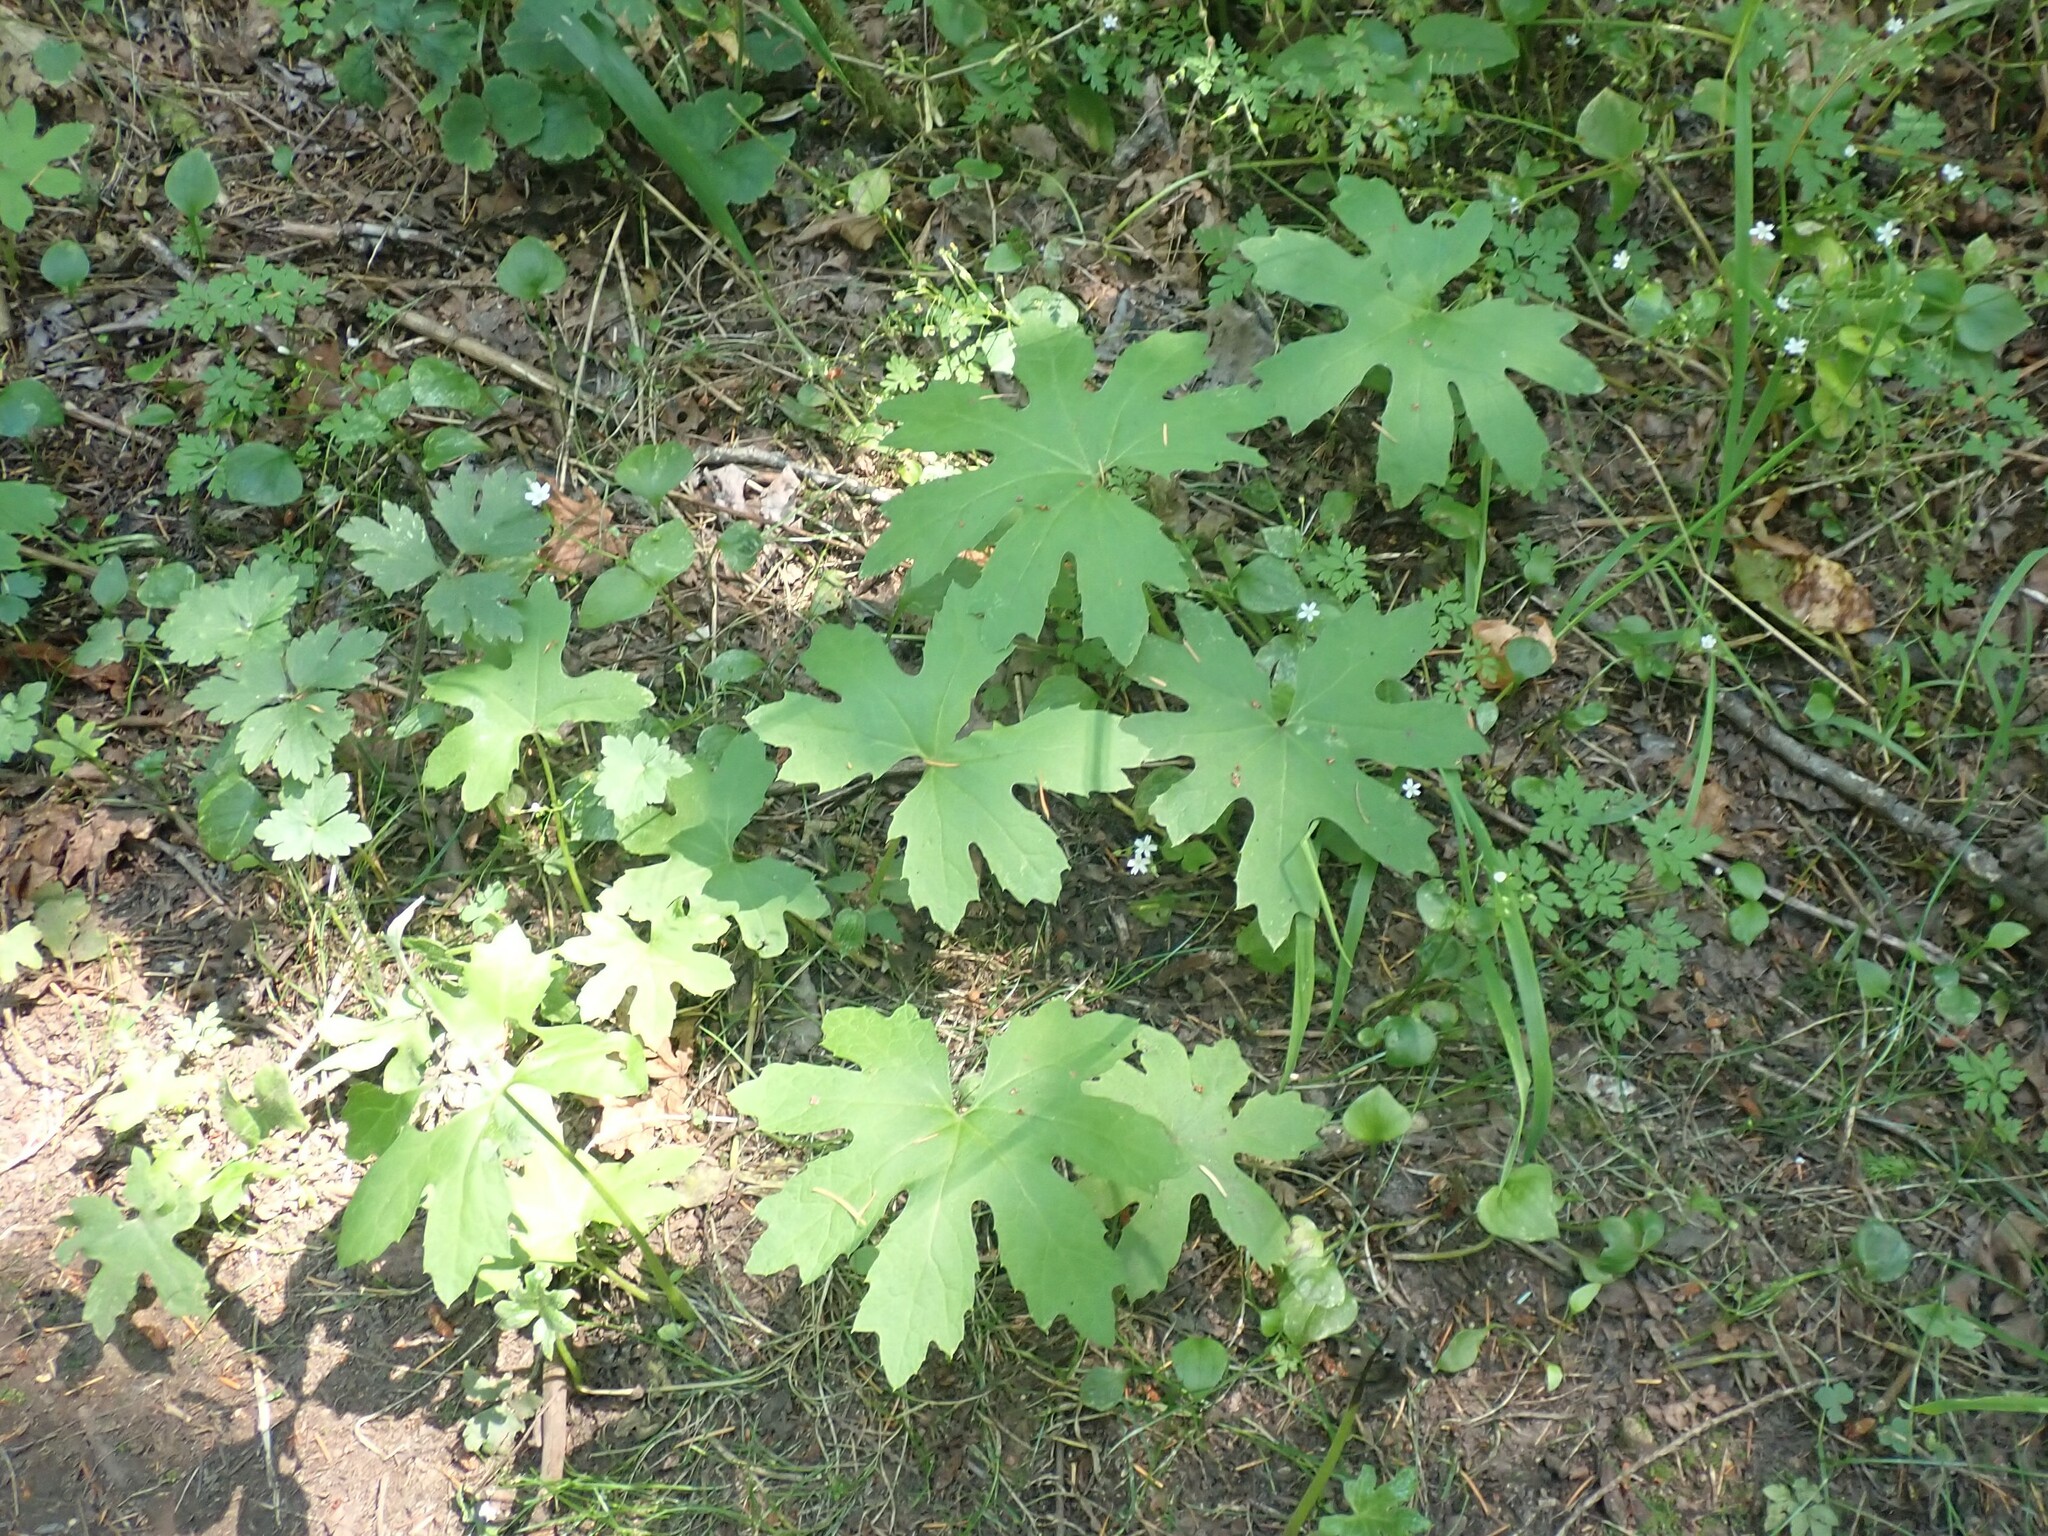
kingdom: Plantae
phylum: Tracheophyta
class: Magnoliopsida
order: Asterales
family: Asteraceae
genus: Petasites
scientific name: Petasites frigidus
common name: Arctic butterbur
